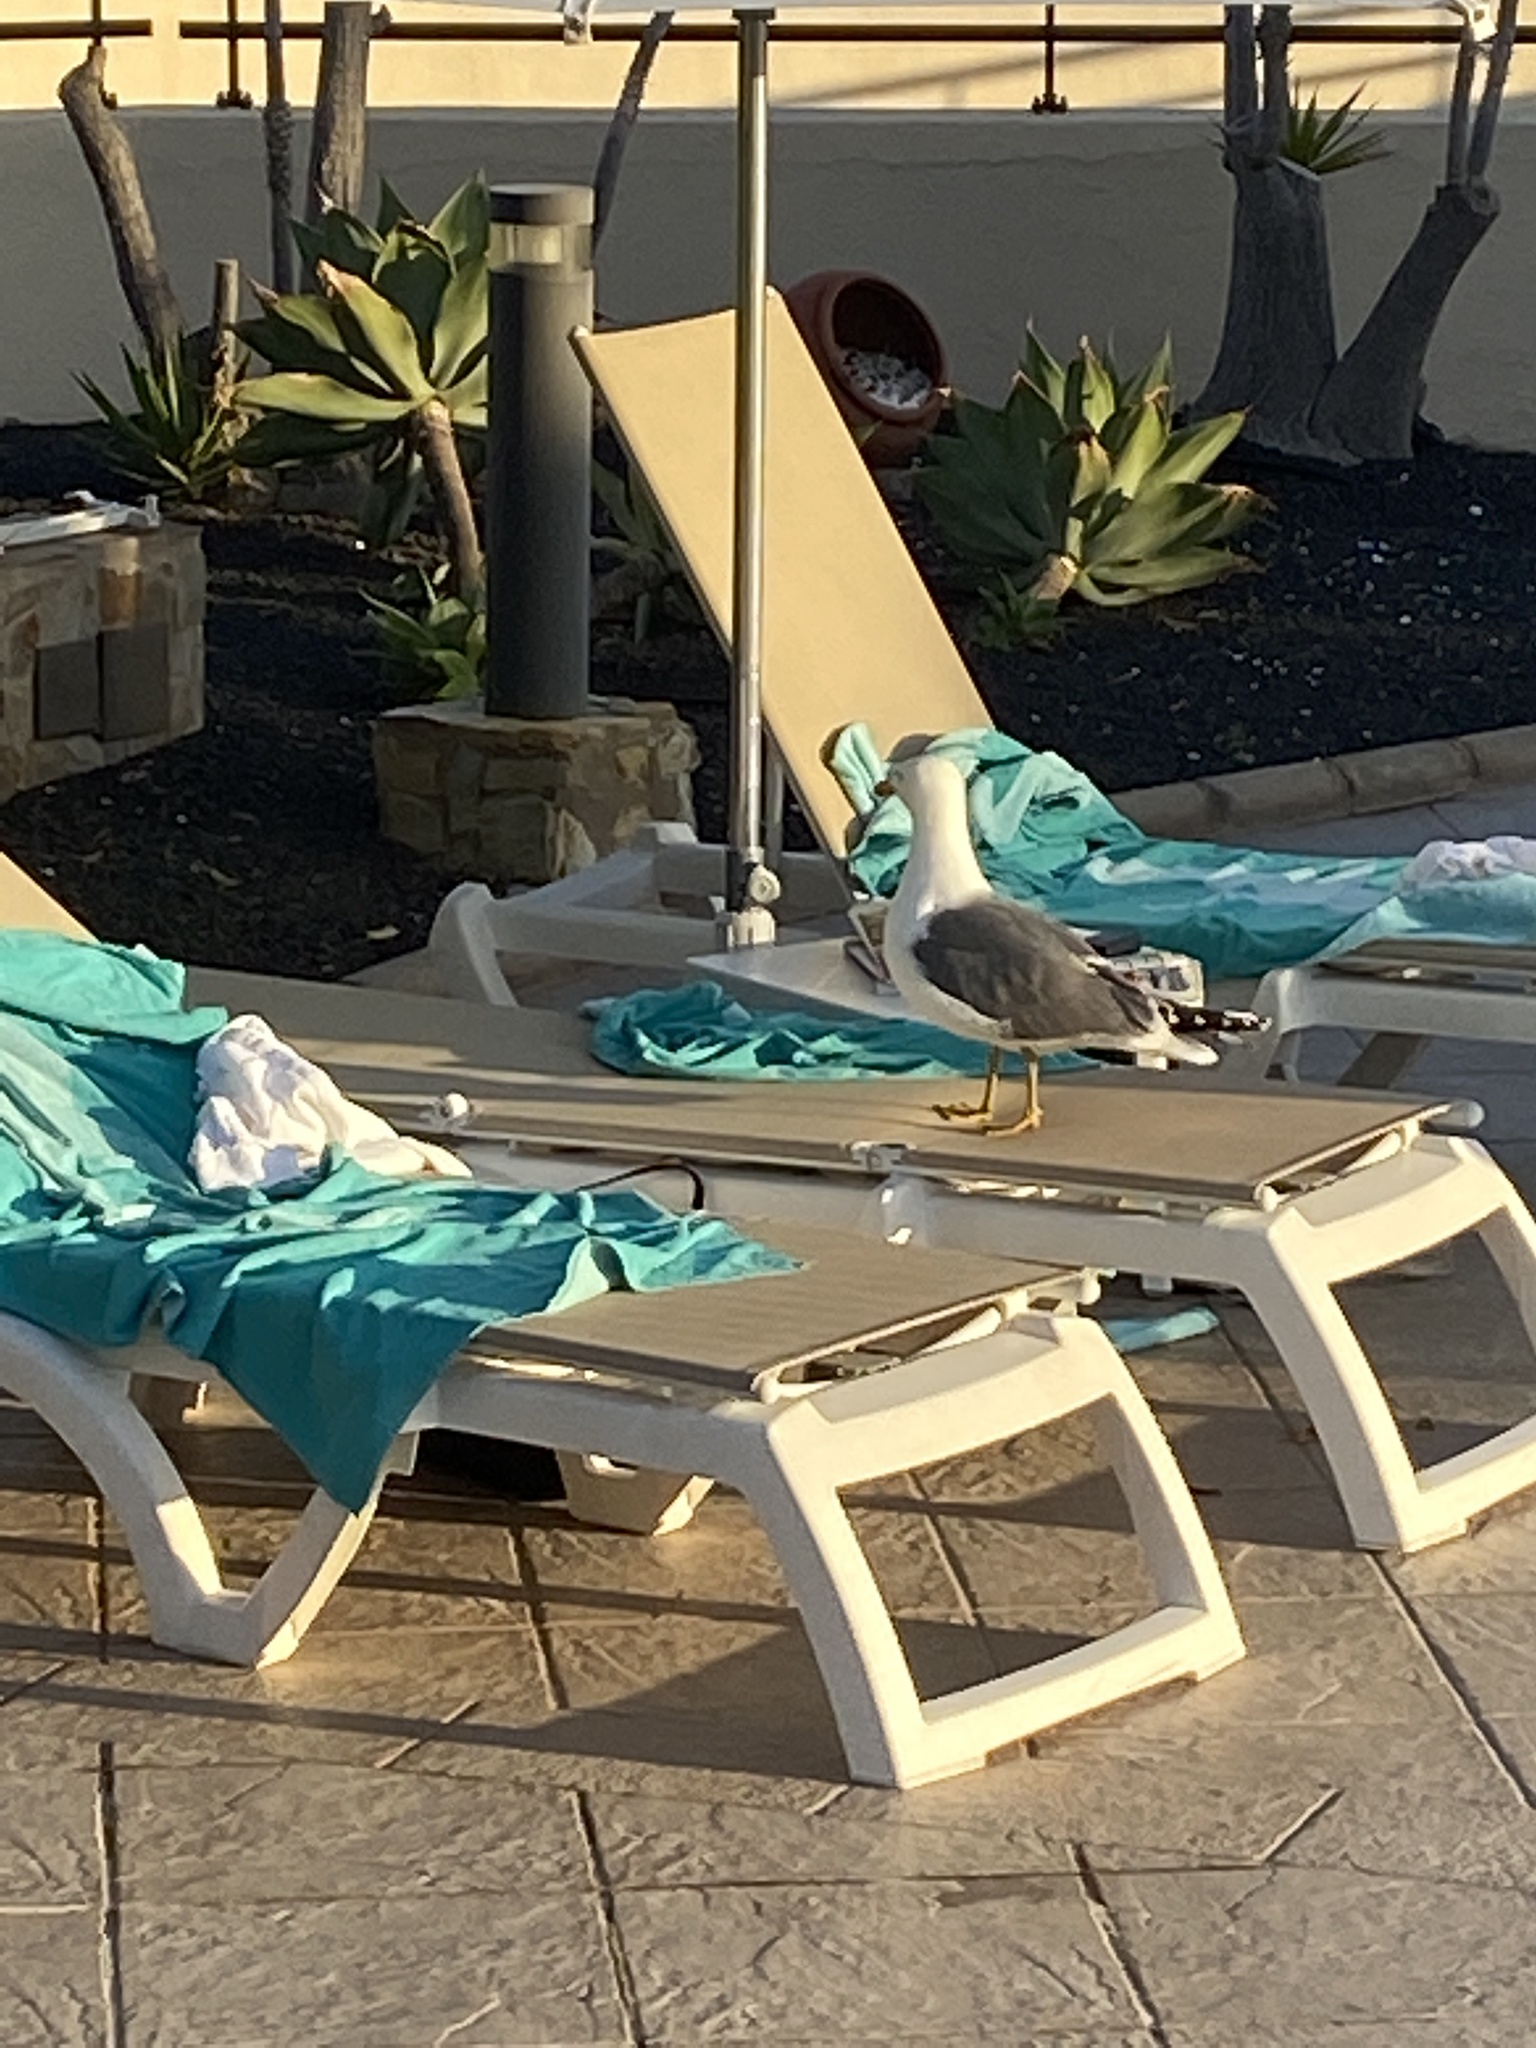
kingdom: Animalia
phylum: Chordata
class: Aves
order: Charadriiformes
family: Laridae
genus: Larus
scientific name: Larus fuscus
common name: Lesser black-backed gull
